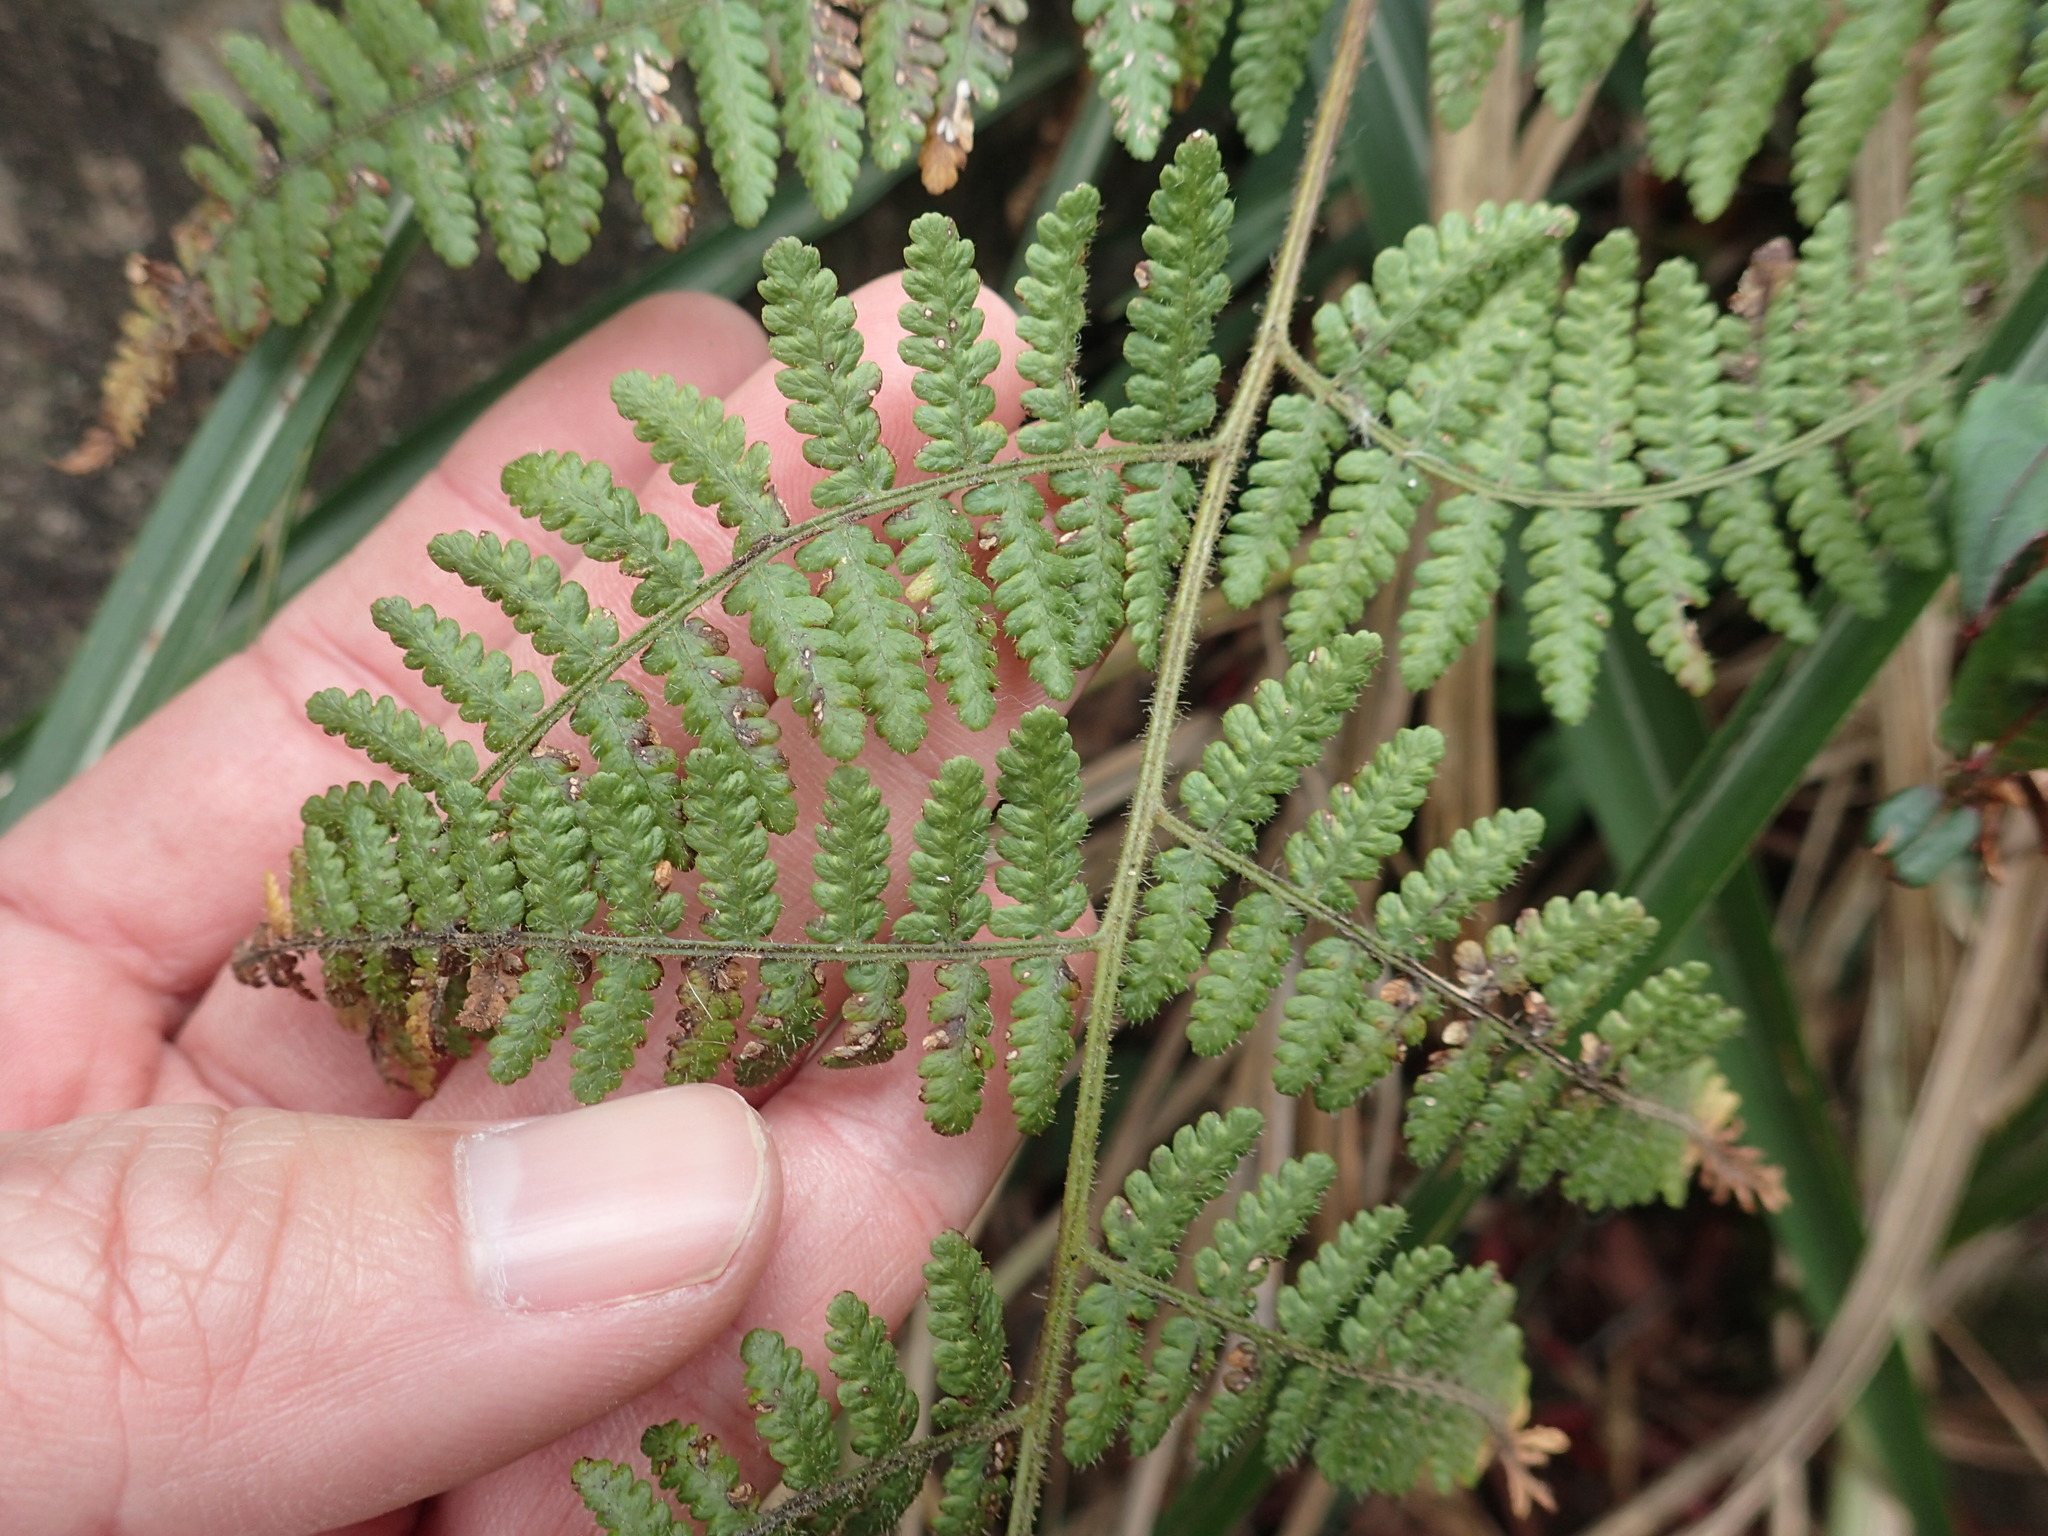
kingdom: Plantae
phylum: Tracheophyta
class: Polypodiopsida
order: Polypodiales
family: Dennstaedtiaceae
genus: Hypolepis
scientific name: Hypolepis punctata
